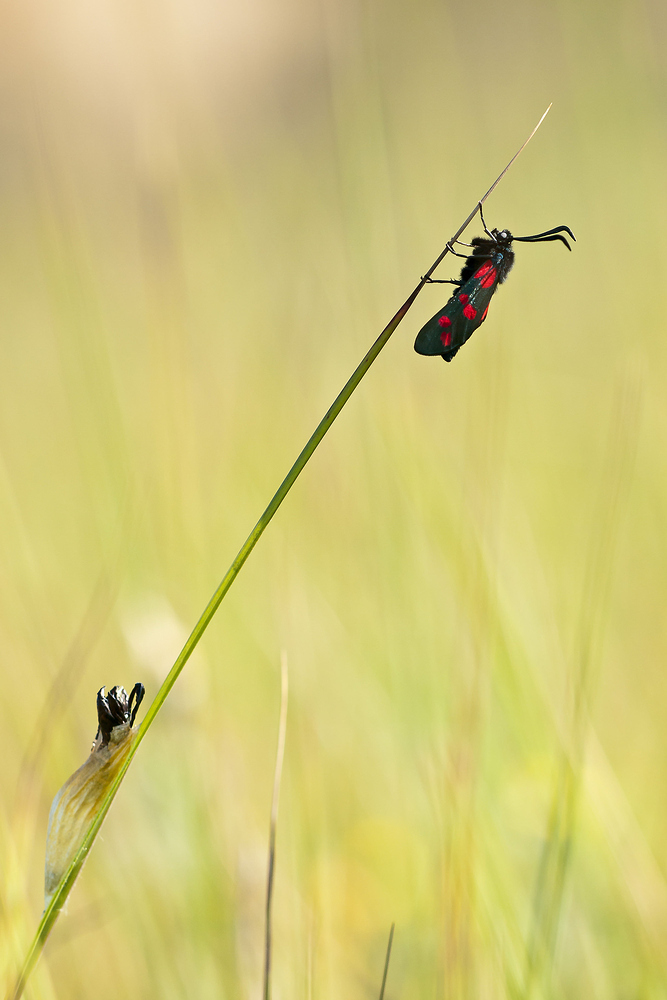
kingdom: Animalia
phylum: Arthropoda
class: Insecta
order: Lepidoptera
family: Zygaenidae
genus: Zygaena
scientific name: Zygaena filipendulae
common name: Six-spot burnet
